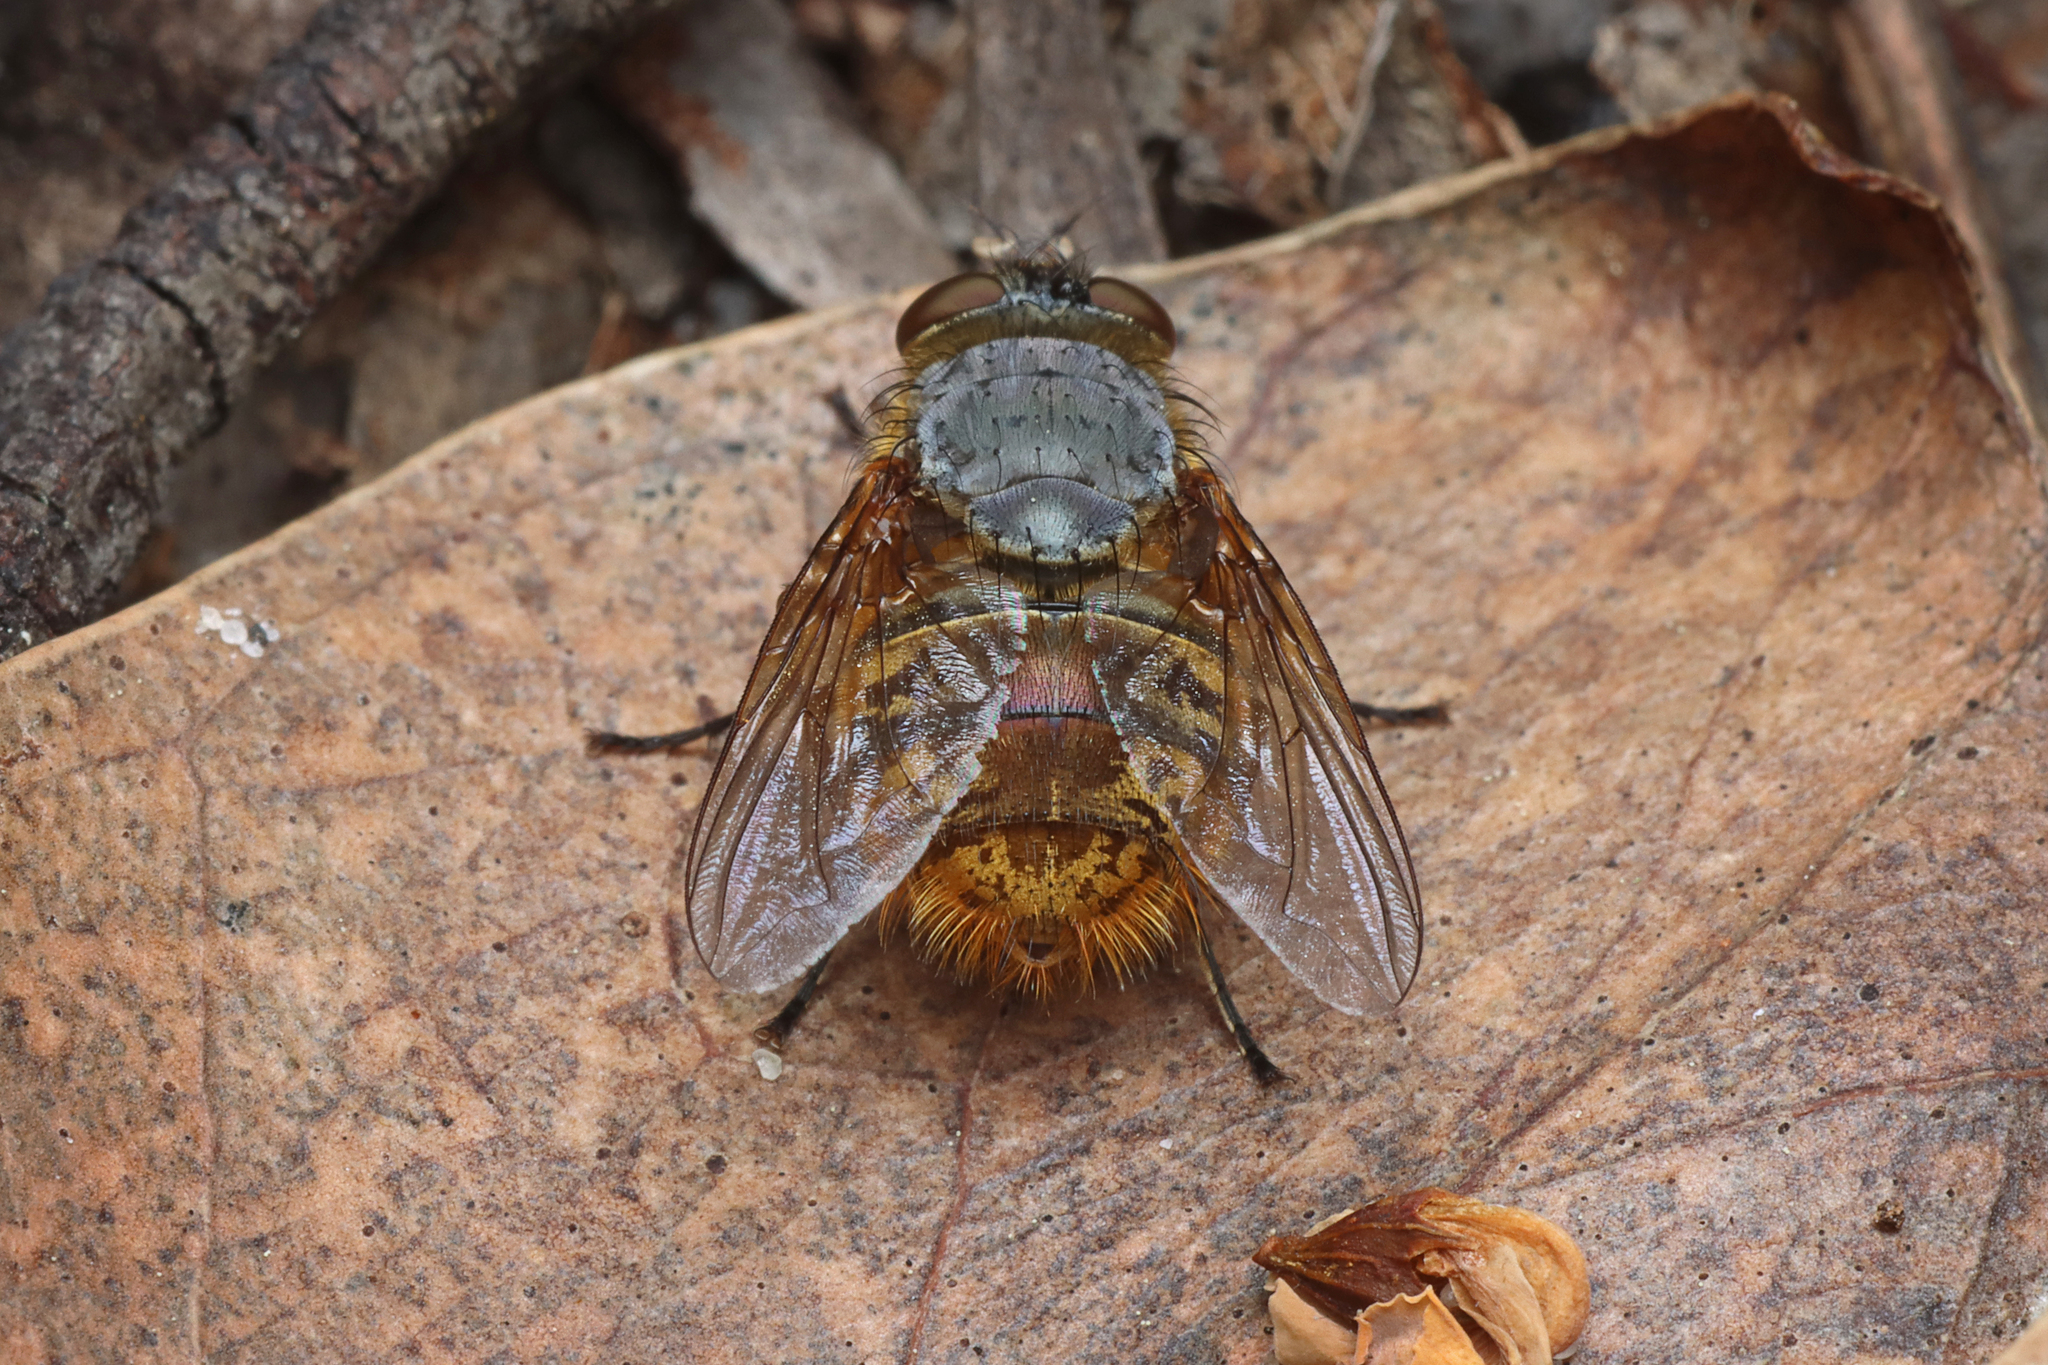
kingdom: Animalia
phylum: Arthropoda
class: Insecta
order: Diptera
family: Calliphoridae
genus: Calliphora
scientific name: Calliphora hilli
